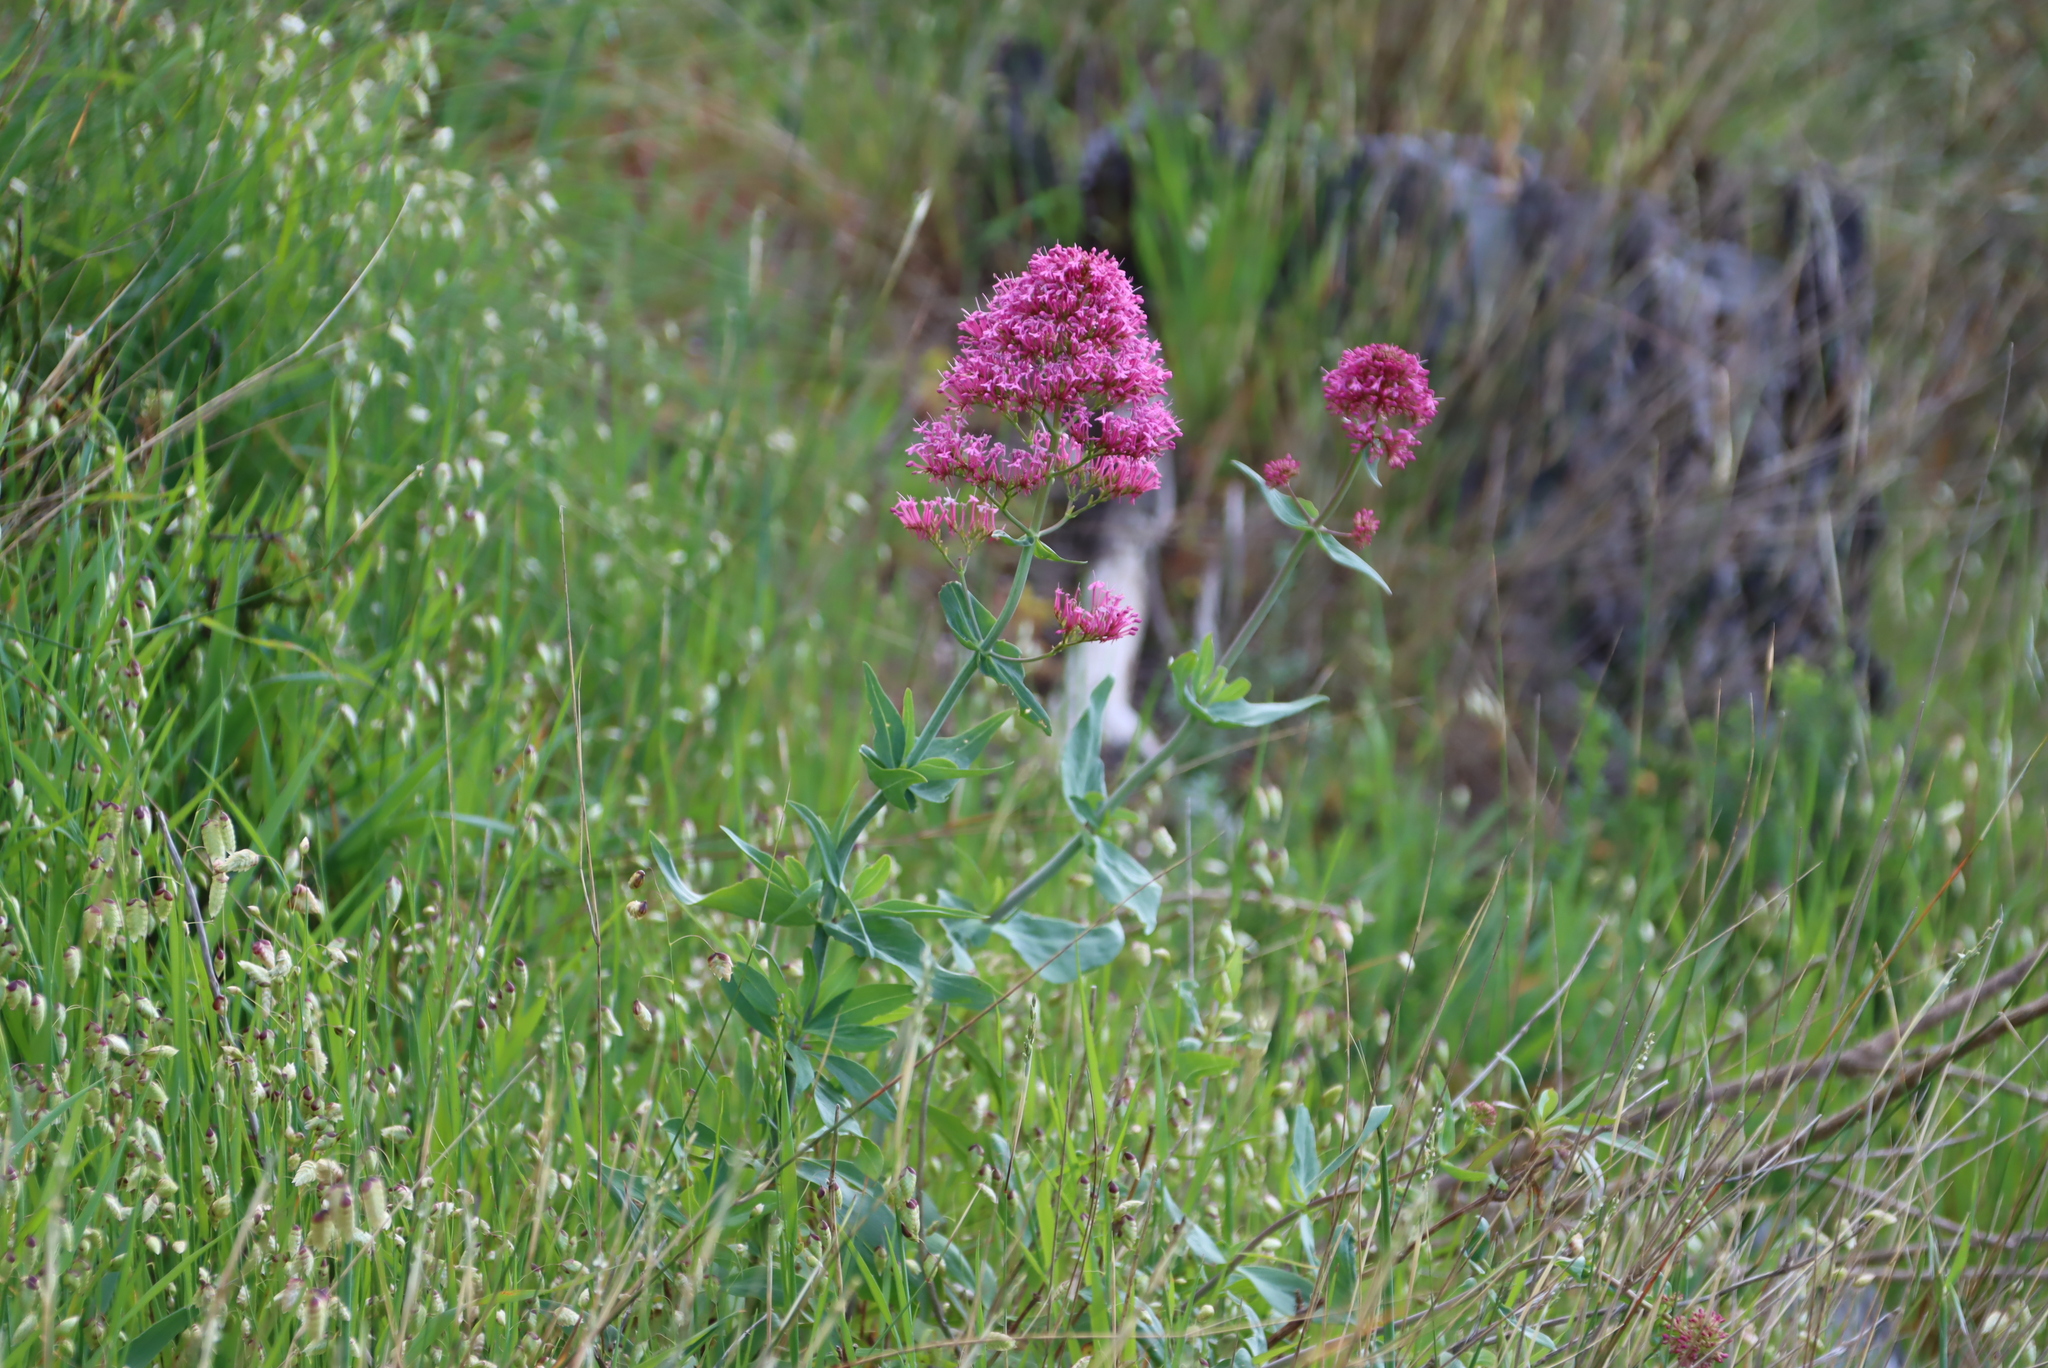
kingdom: Plantae
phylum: Tracheophyta
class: Magnoliopsida
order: Dipsacales
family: Caprifoliaceae
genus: Centranthus
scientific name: Centranthus ruber
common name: Red valerian
